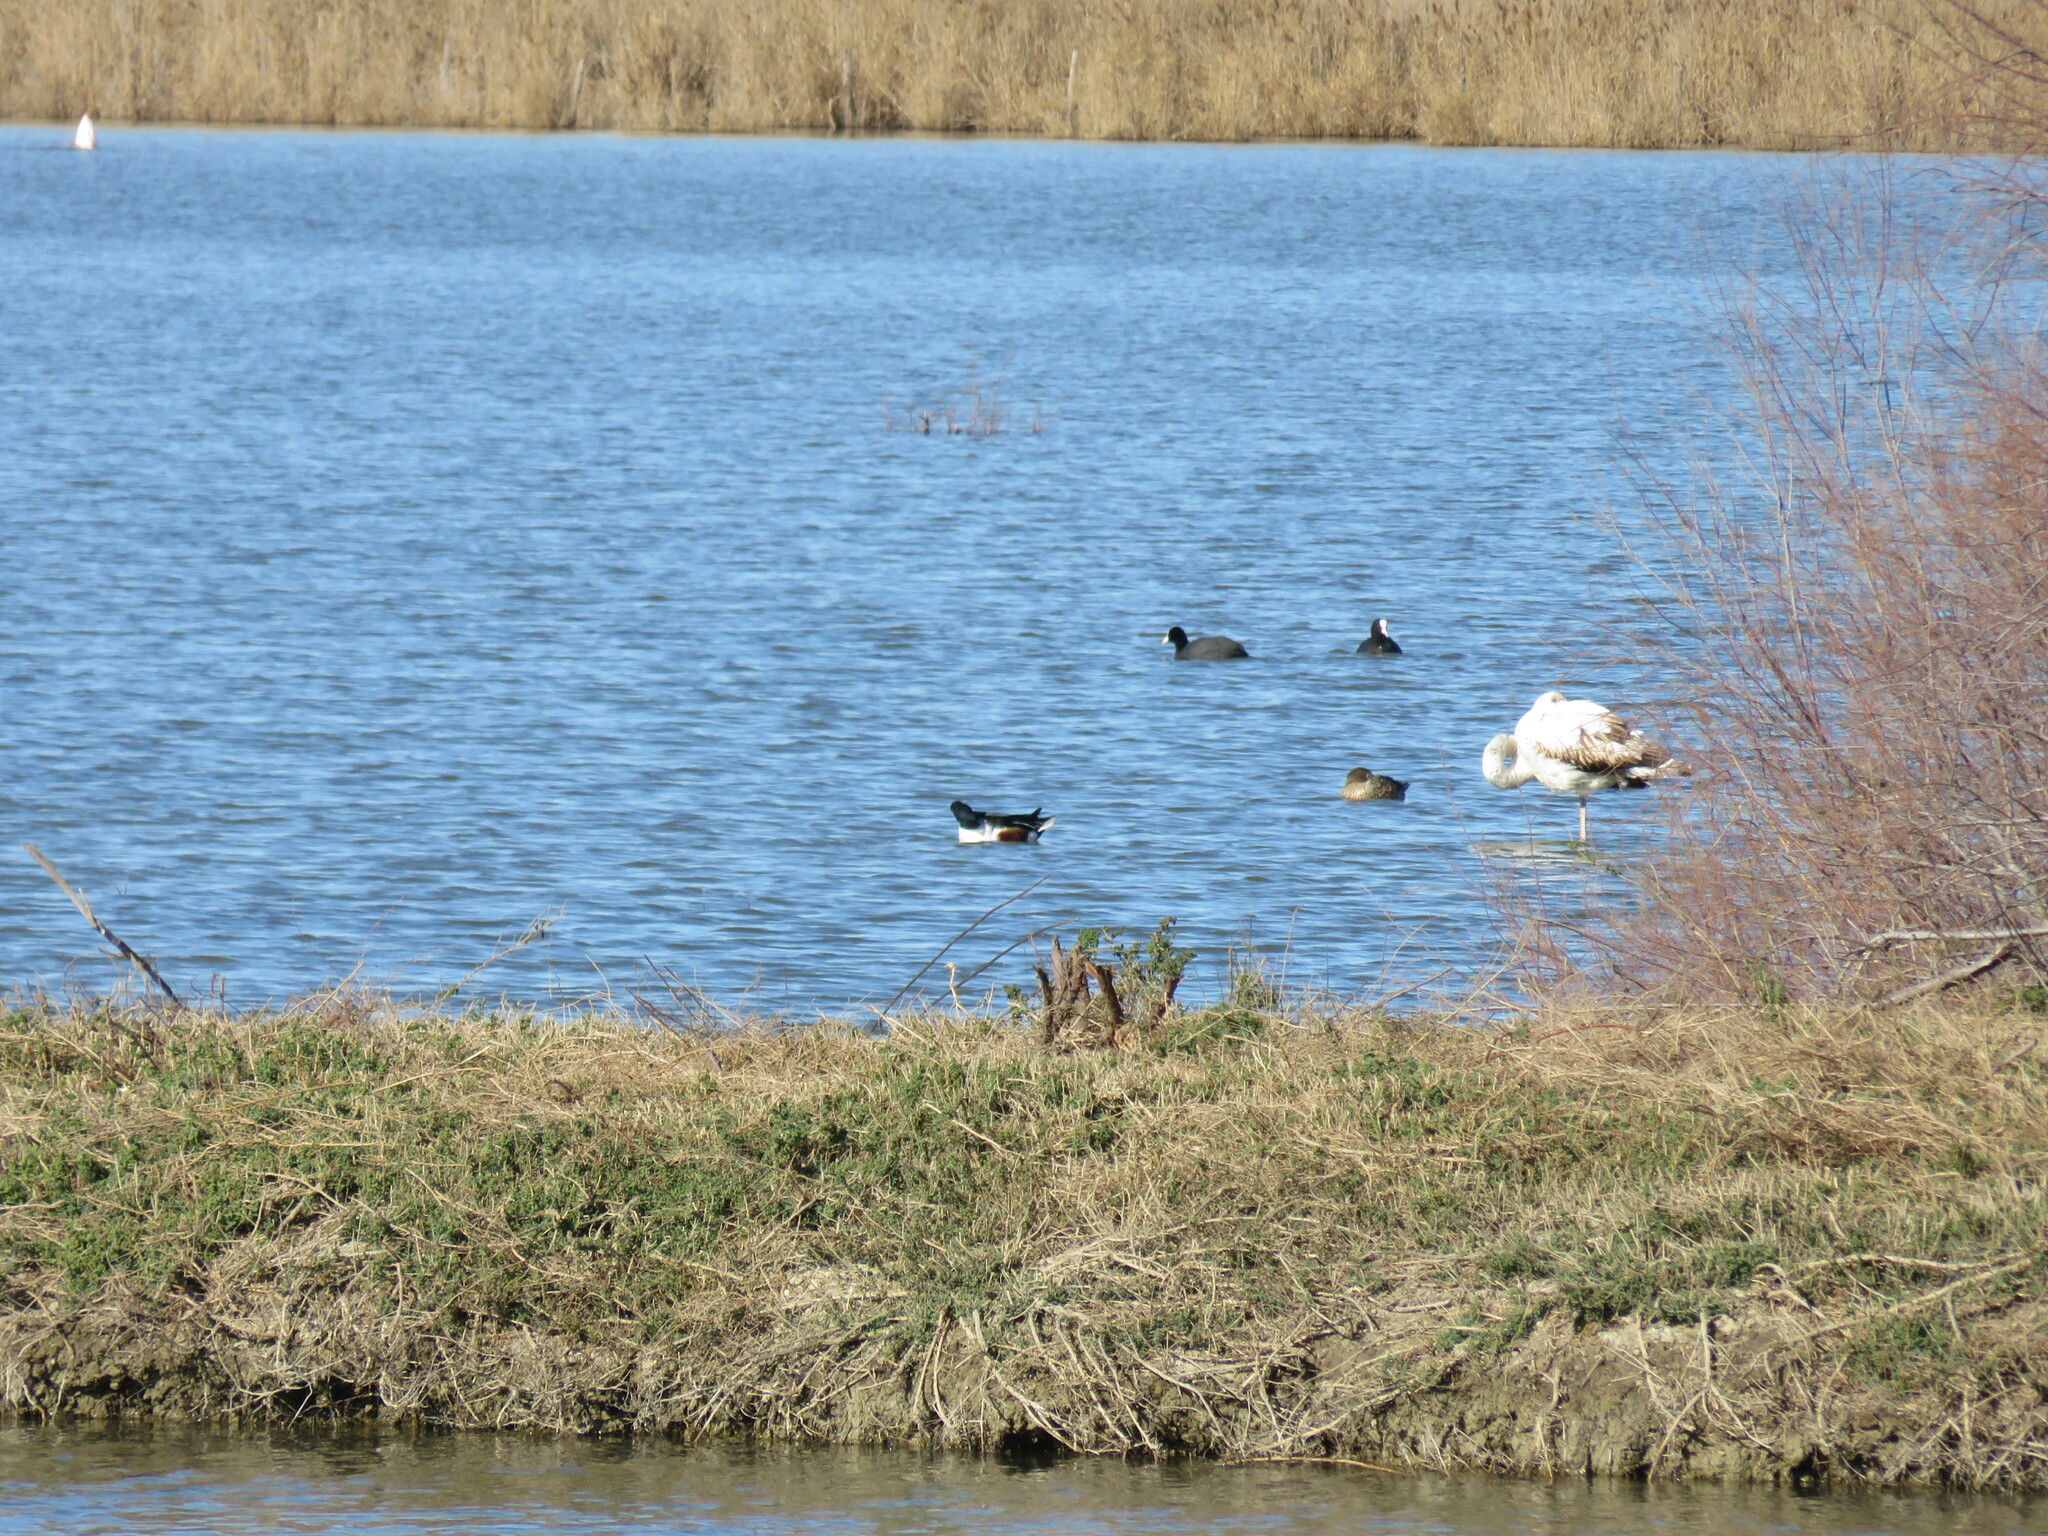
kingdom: Animalia
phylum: Chordata
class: Aves
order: Anseriformes
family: Anatidae
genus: Spatula
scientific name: Spatula clypeata
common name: Northern shoveler
